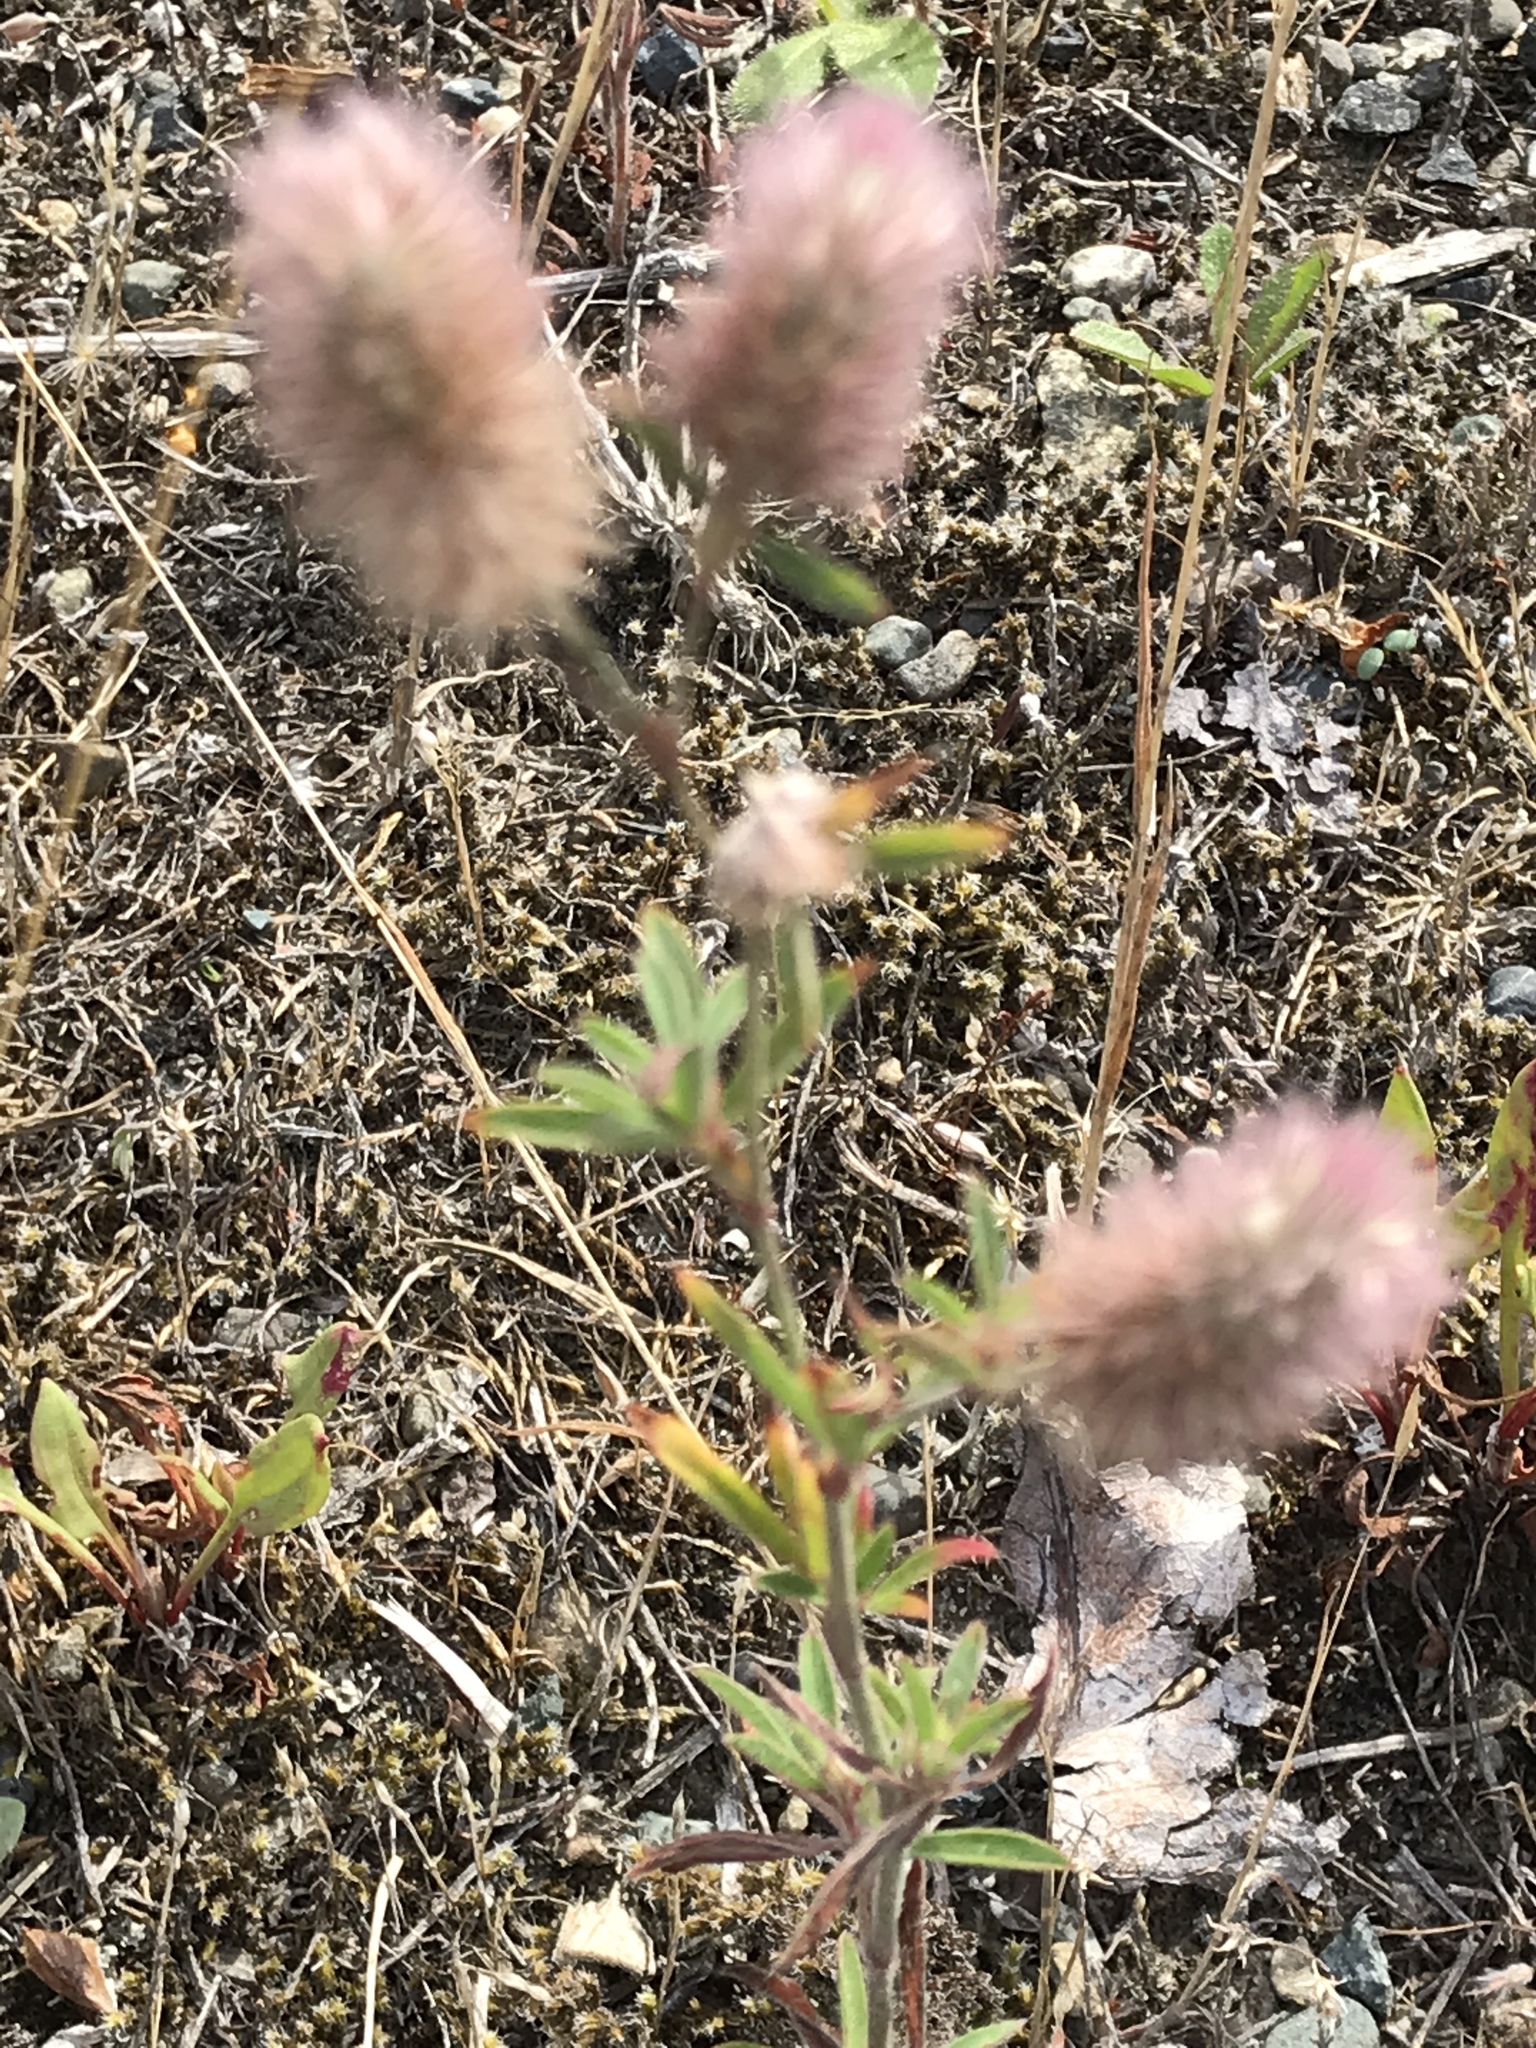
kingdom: Plantae
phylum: Tracheophyta
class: Magnoliopsida
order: Fabales
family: Fabaceae
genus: Trifolium
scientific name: Trifolium arvense
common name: Hare's-foot clover
